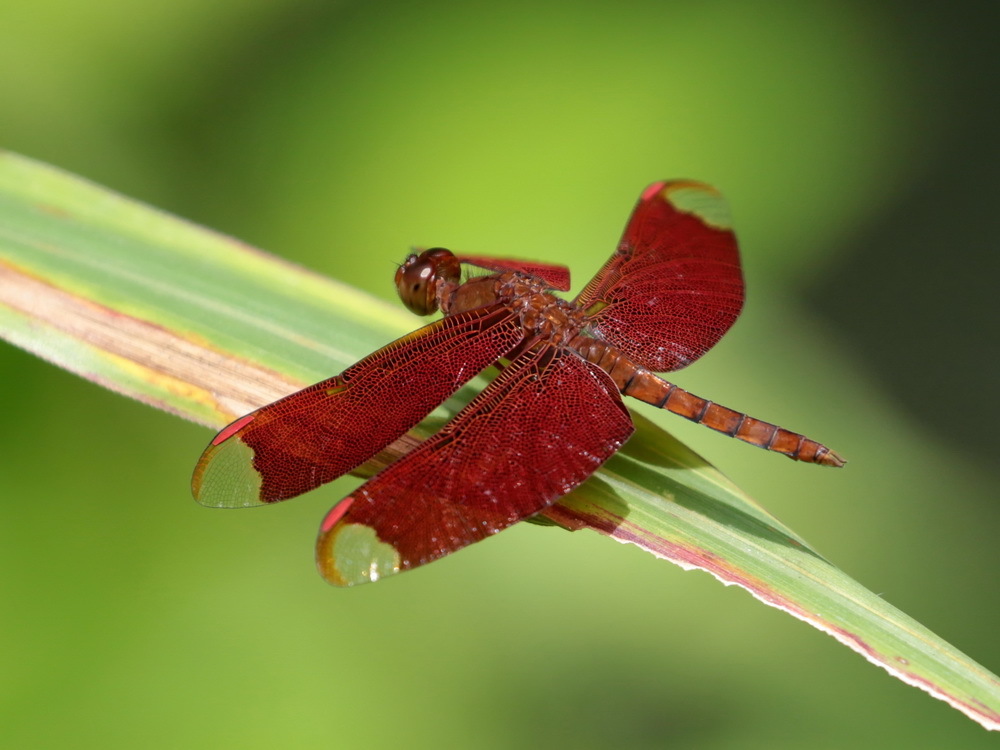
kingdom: Animalia
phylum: Arthropoda
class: Insecta
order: Odonata
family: Libellulidae
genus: Neurothemis
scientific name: Neurothemis fulvia
